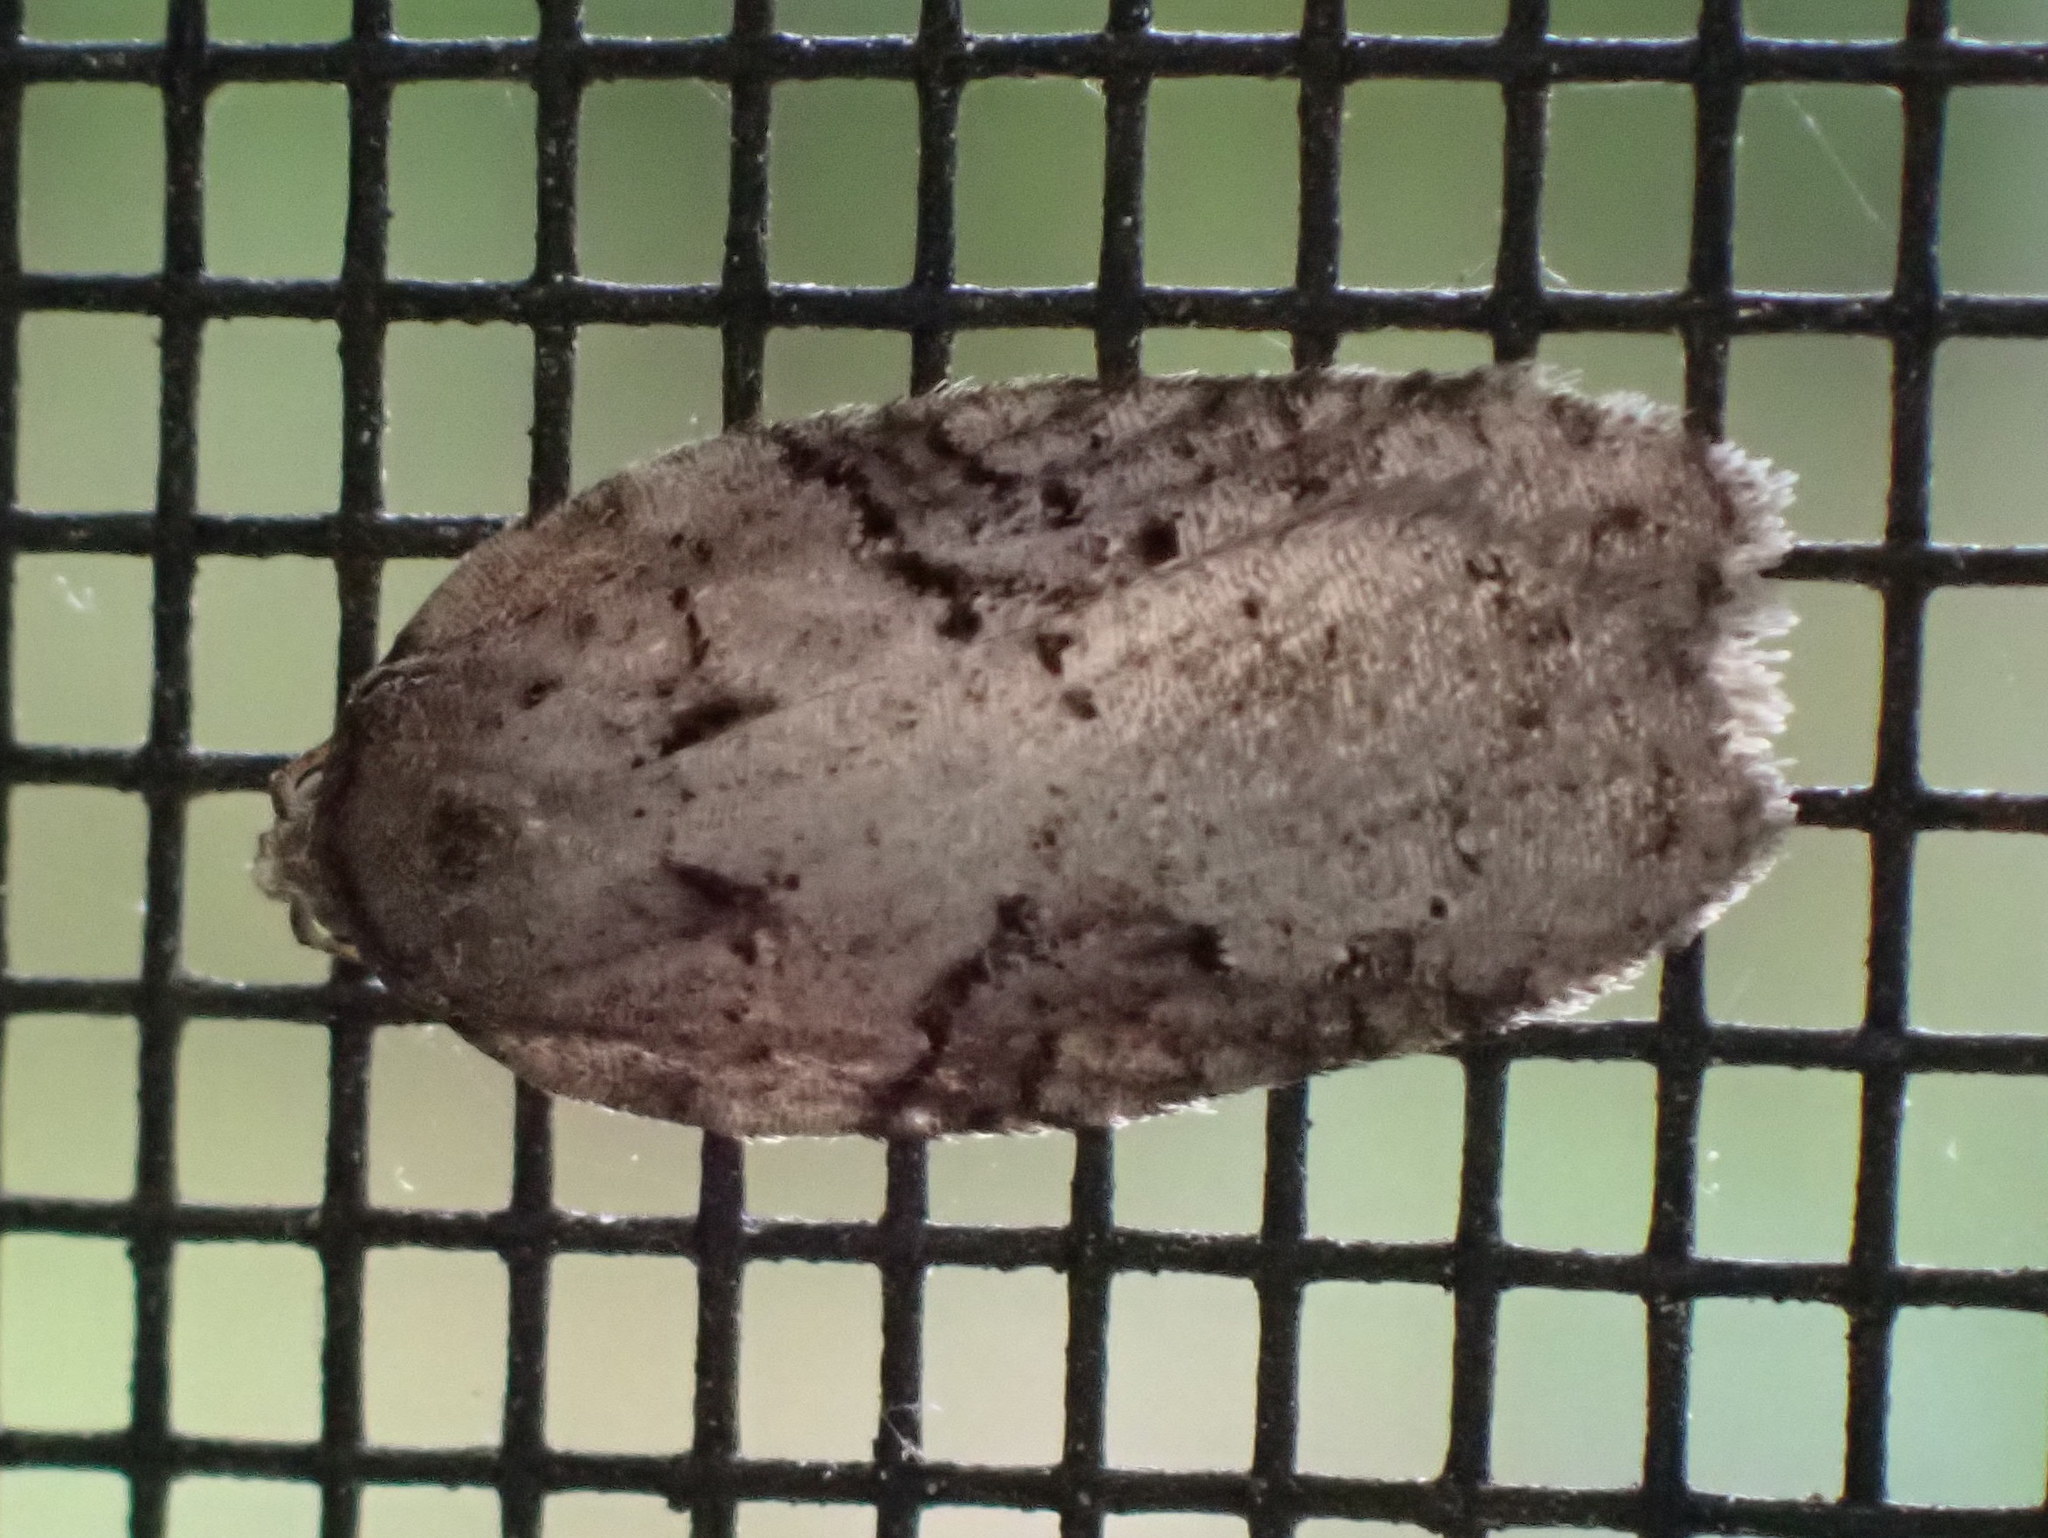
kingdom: Animalia
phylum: Arthropoda
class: Insecta
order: Lepidoptera
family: Tortricidae
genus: Acleris
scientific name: Acleris chalybeana
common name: Lesser maple leafroller
